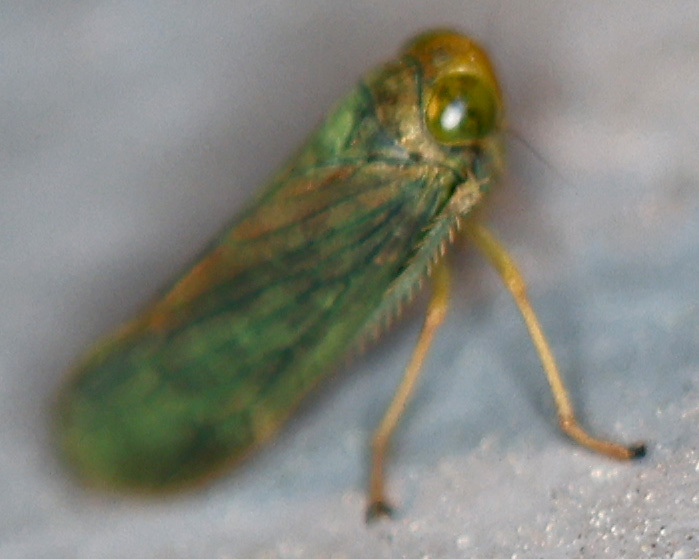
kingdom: Animalia
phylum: Arthropoda
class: Insecta
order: Hemiptera
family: Cicadellidae
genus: Jikradia
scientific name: Jikradia olitoria
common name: Coppery leafhopper
